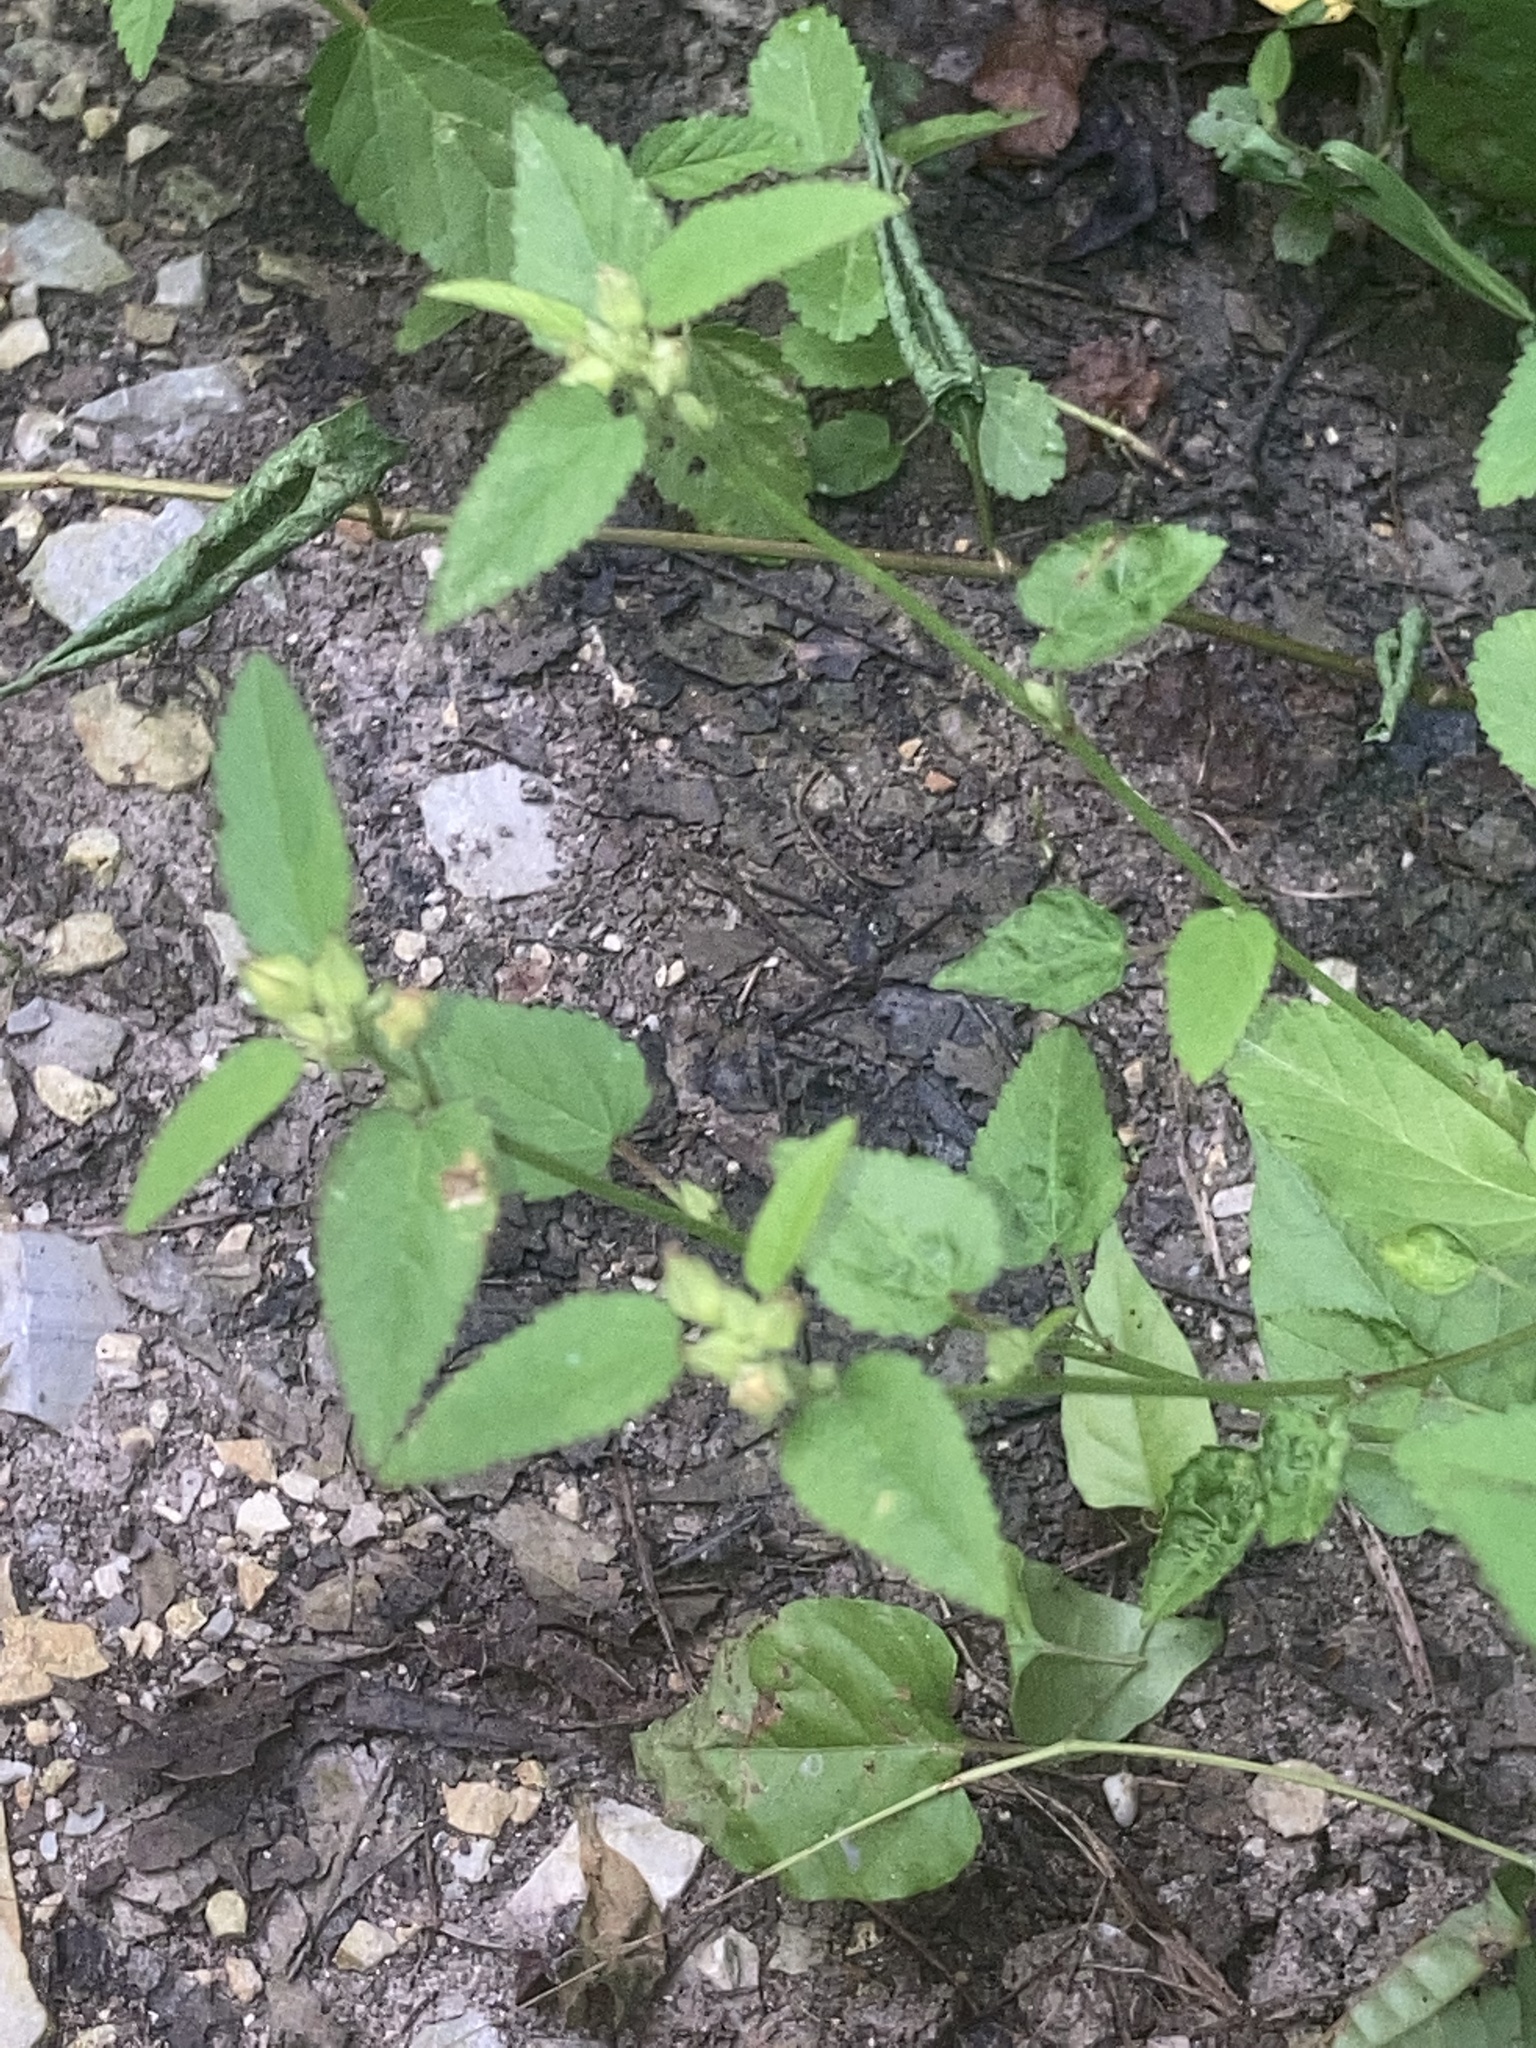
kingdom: Plantae
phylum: Tracheophyta
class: Magnoliopsida
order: Malvales
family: Malvaceae
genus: Sida
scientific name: Sida spinosa
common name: Prickly fanpetals
